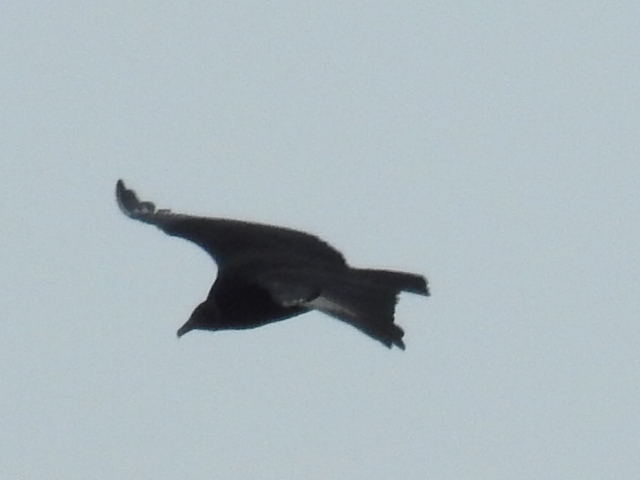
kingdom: Animalia
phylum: Chordata
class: Aves
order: Accipitriformes
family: Cathartidae
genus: Coragyps
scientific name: Coragyps atratus
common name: Black vulture
